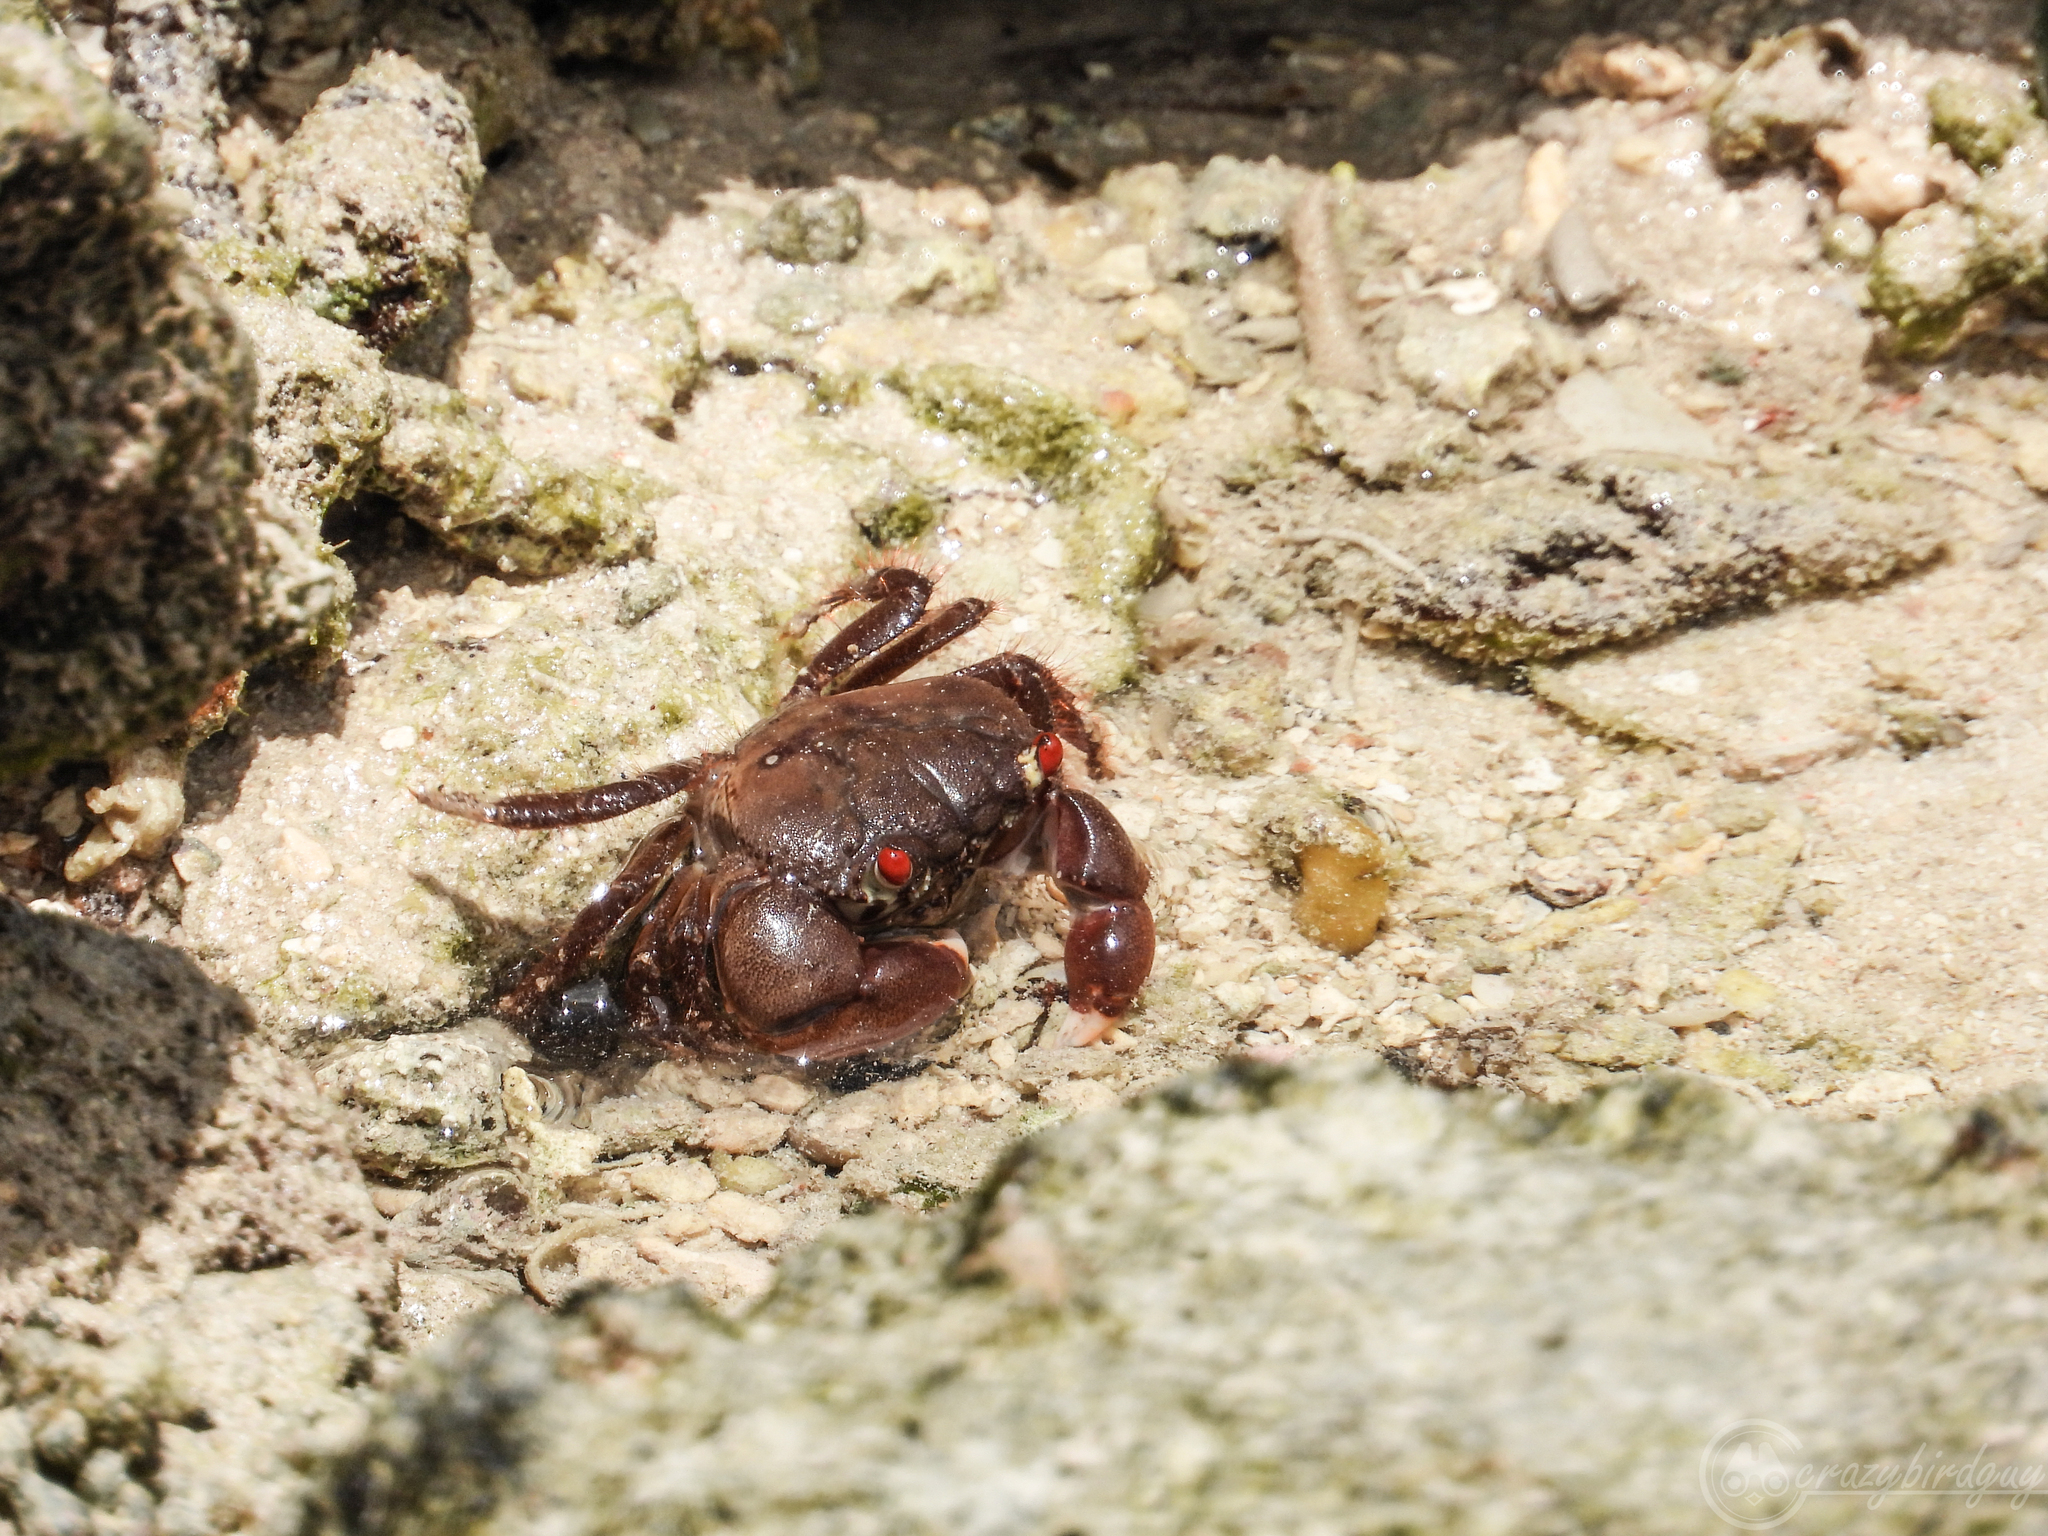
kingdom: Animalia
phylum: Arthropoda
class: Malacostraca
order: Decapoda
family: Eriphiidae
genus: Eriphia
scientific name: Eriphia sebana
